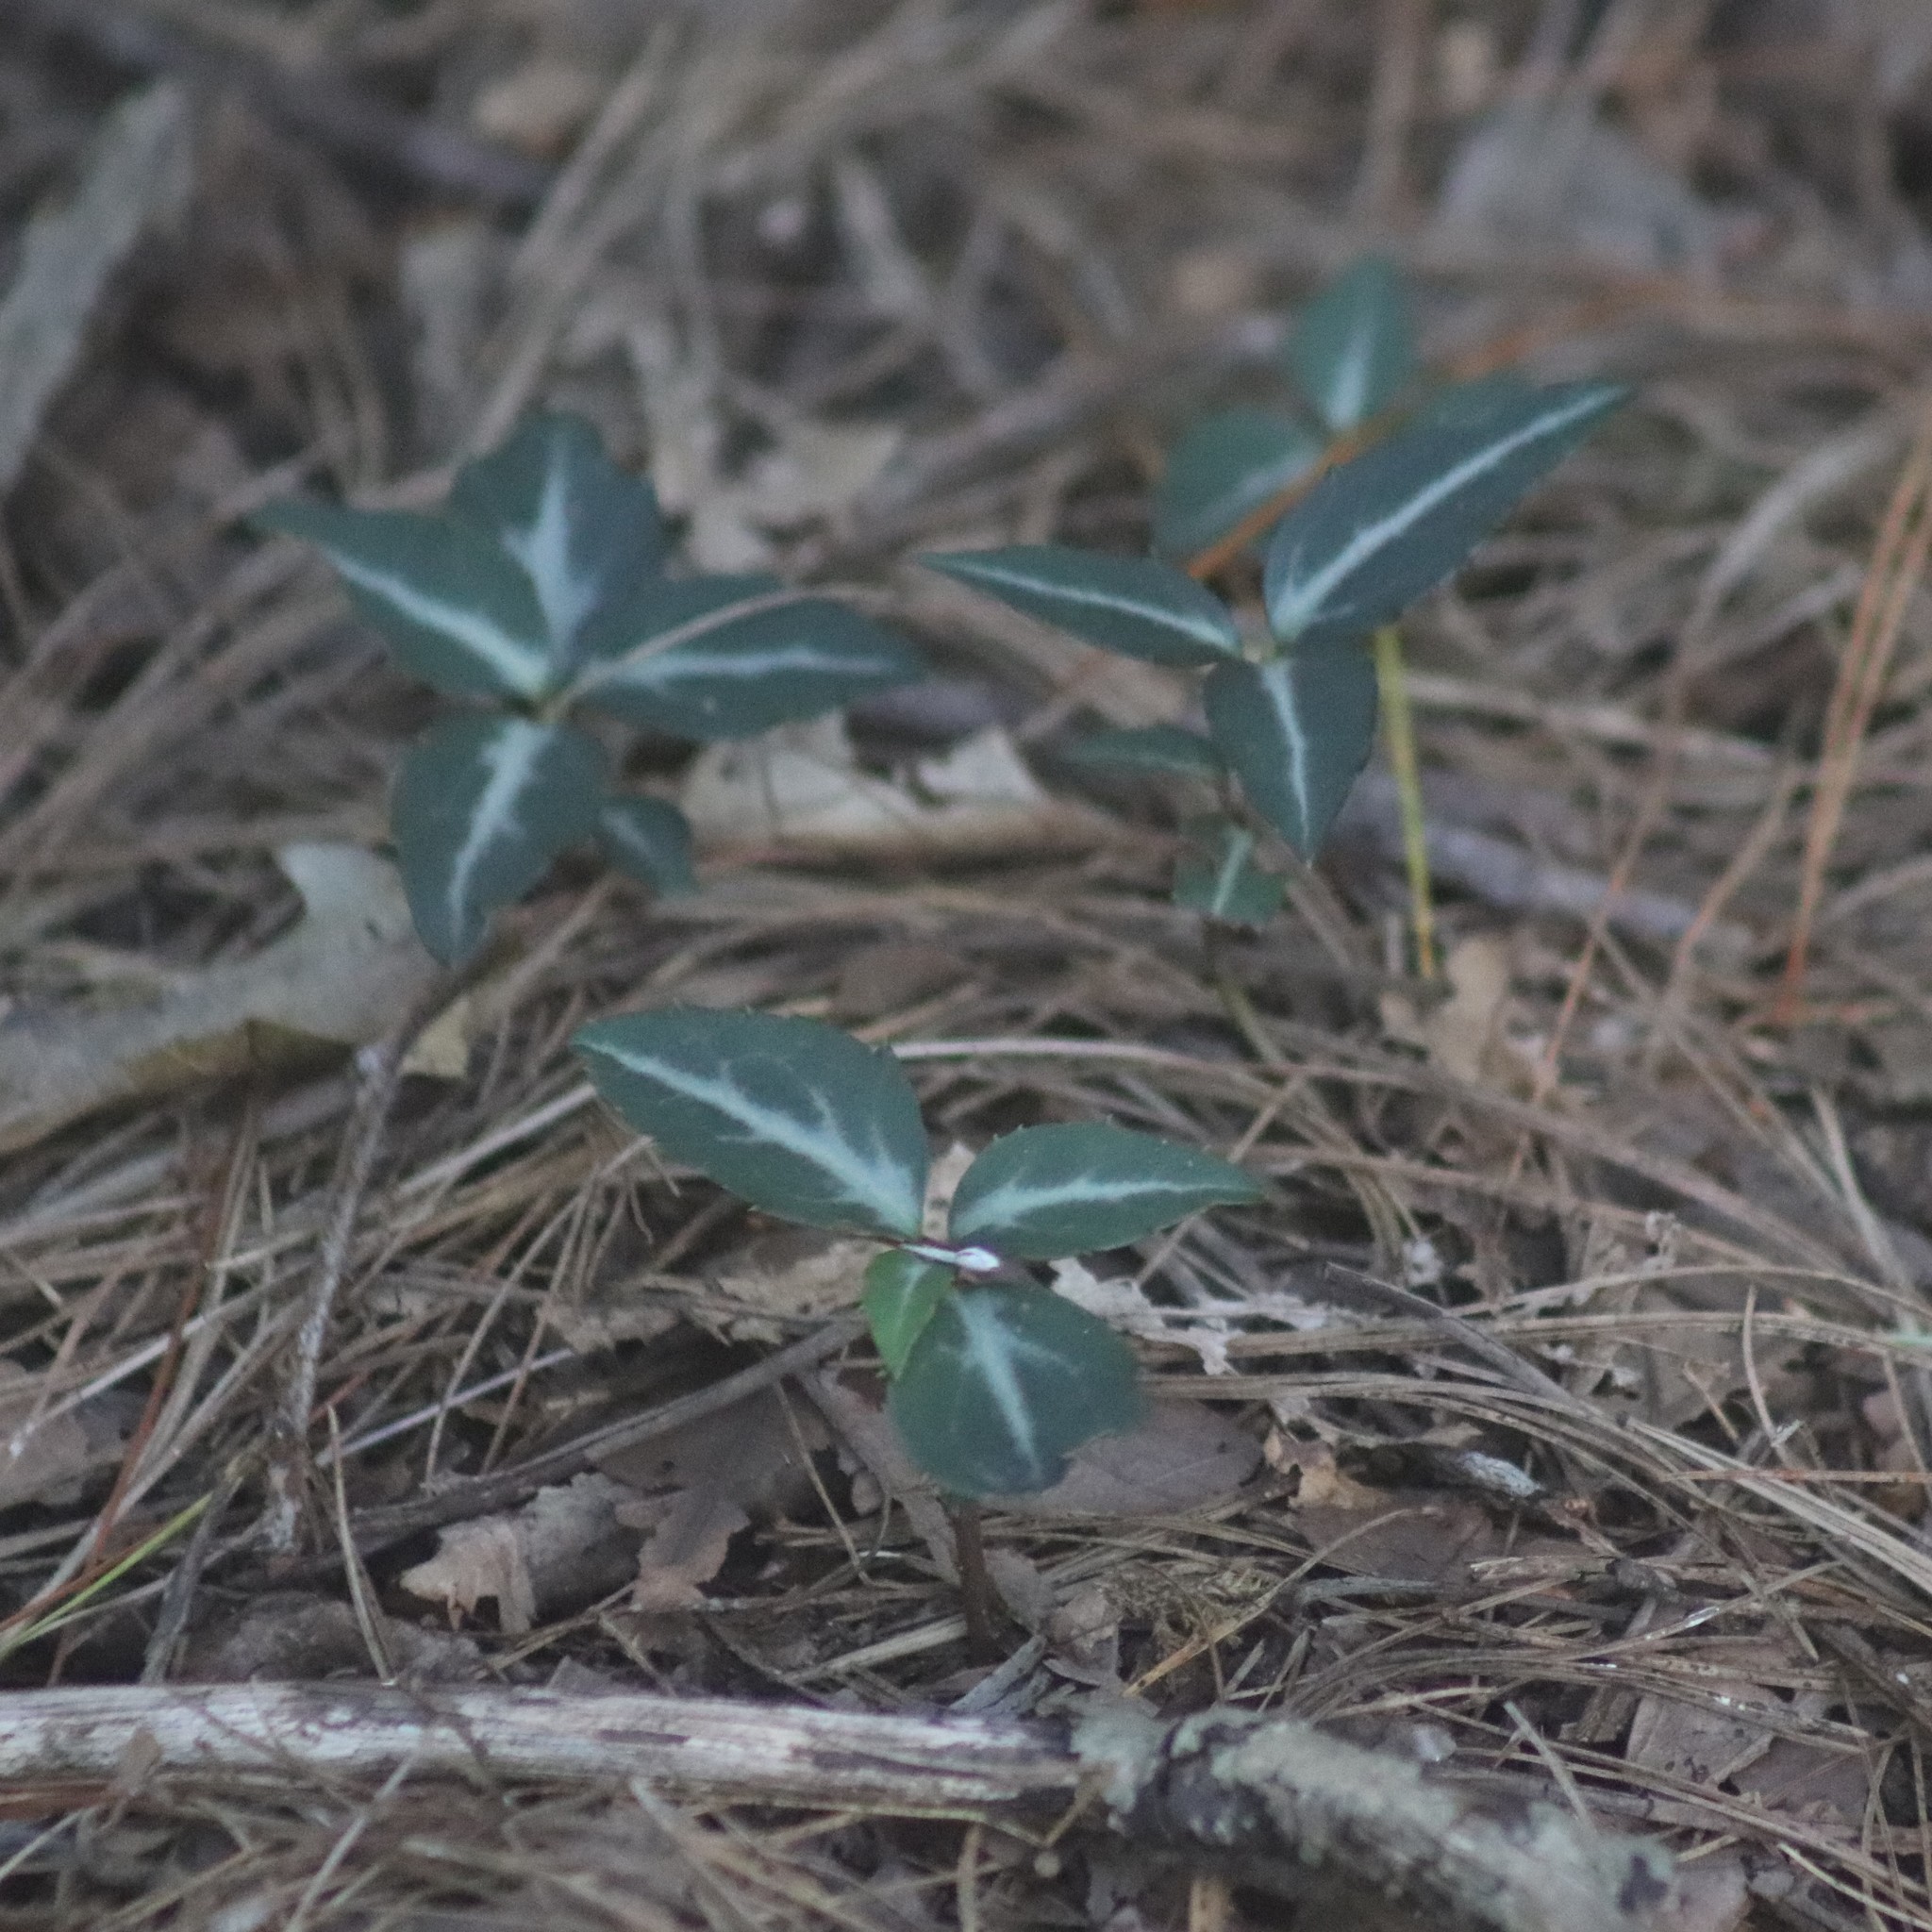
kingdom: Plantae
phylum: Tracheophyta
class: Magnoliopsida
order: Ericales
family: Ericaceae
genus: Chimaphila
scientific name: Chimaphila maculata
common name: Spotted pipsissewa
